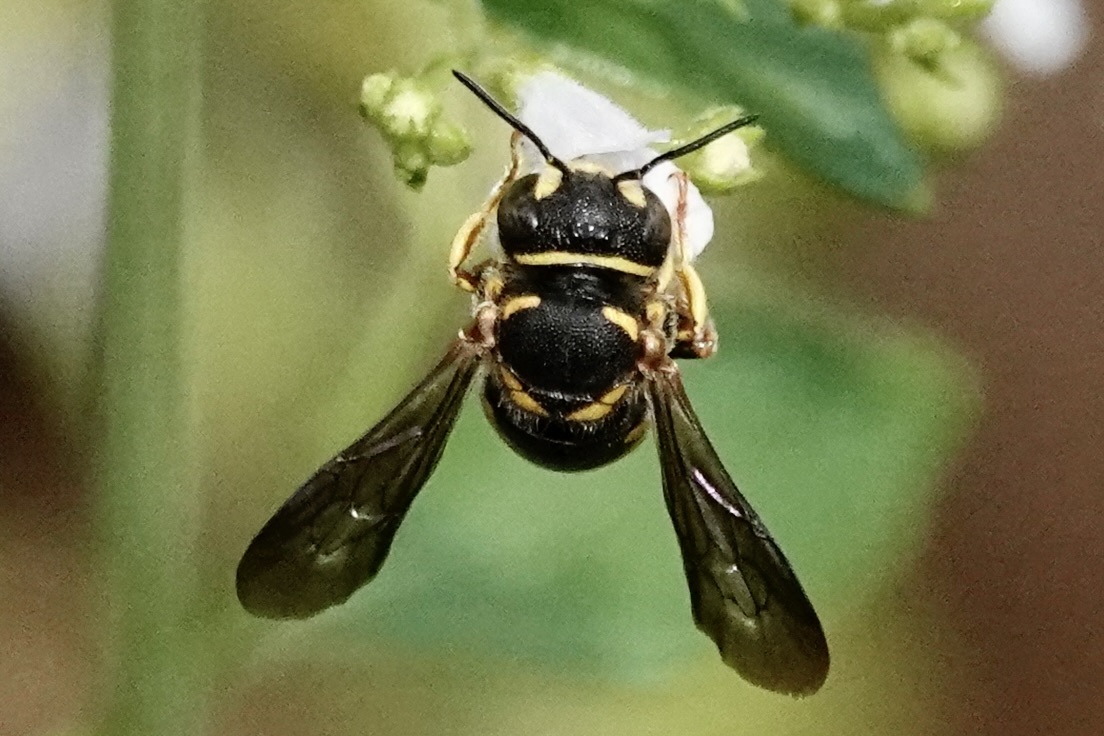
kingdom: Animalia
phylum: Arthropoda
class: Insecta
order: Hymenoptera
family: Megachilidae
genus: Anthidiellum
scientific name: Anthidiellum notatum
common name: Northern rotund-resin bee
